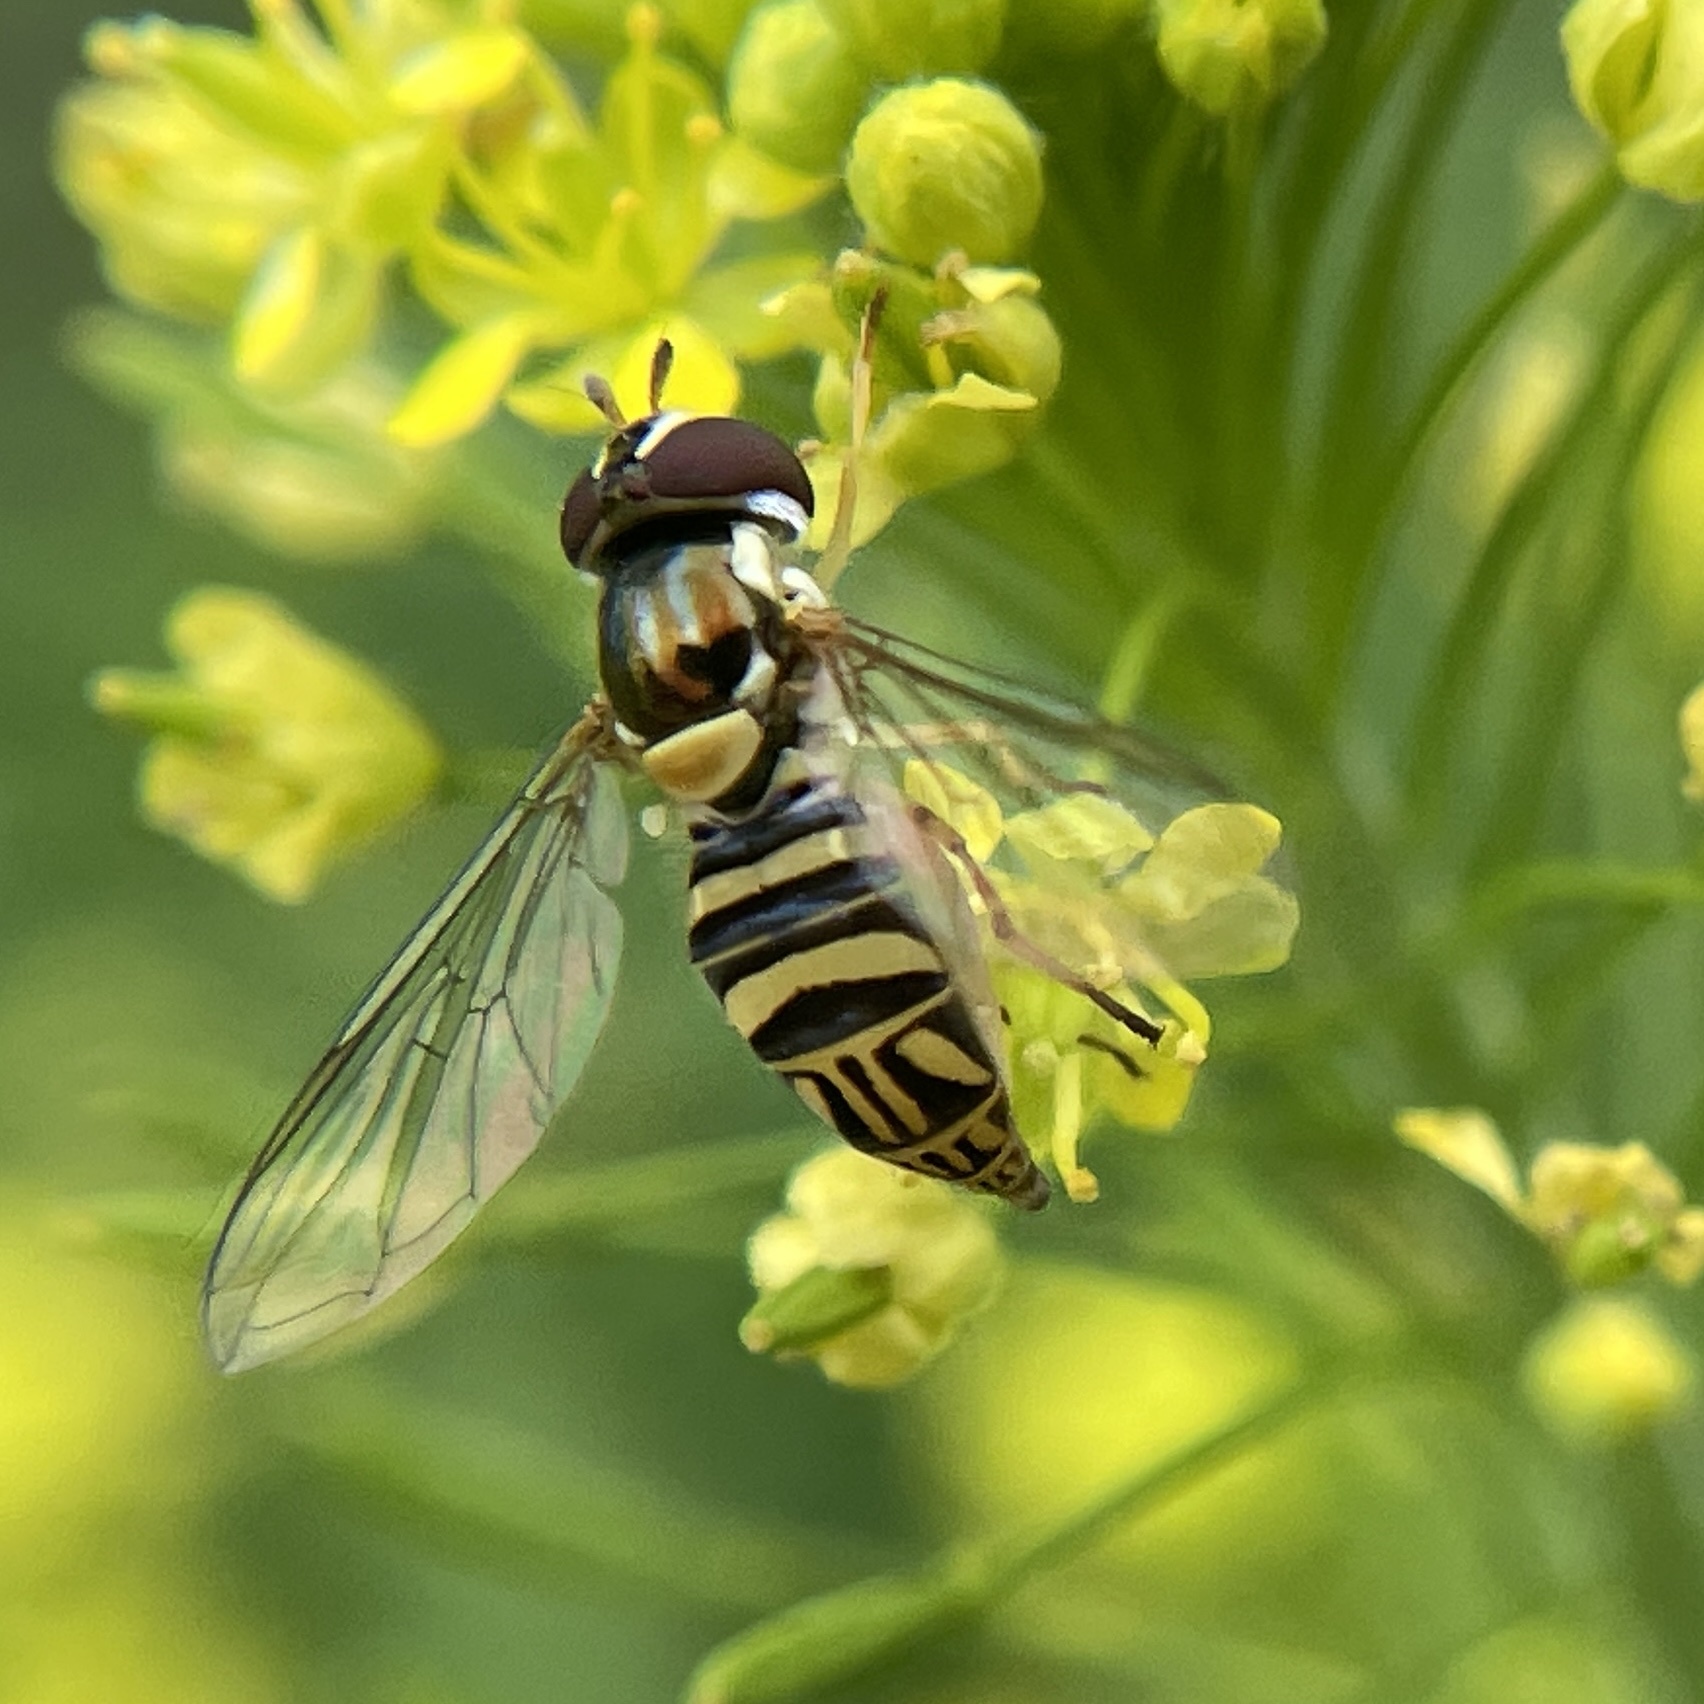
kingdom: Animalia
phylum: Arthropoda
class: Insecta
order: Diptera
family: Syrphidae
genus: Allograpta
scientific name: Allograpta obliqua
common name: Common oblique syrphid
